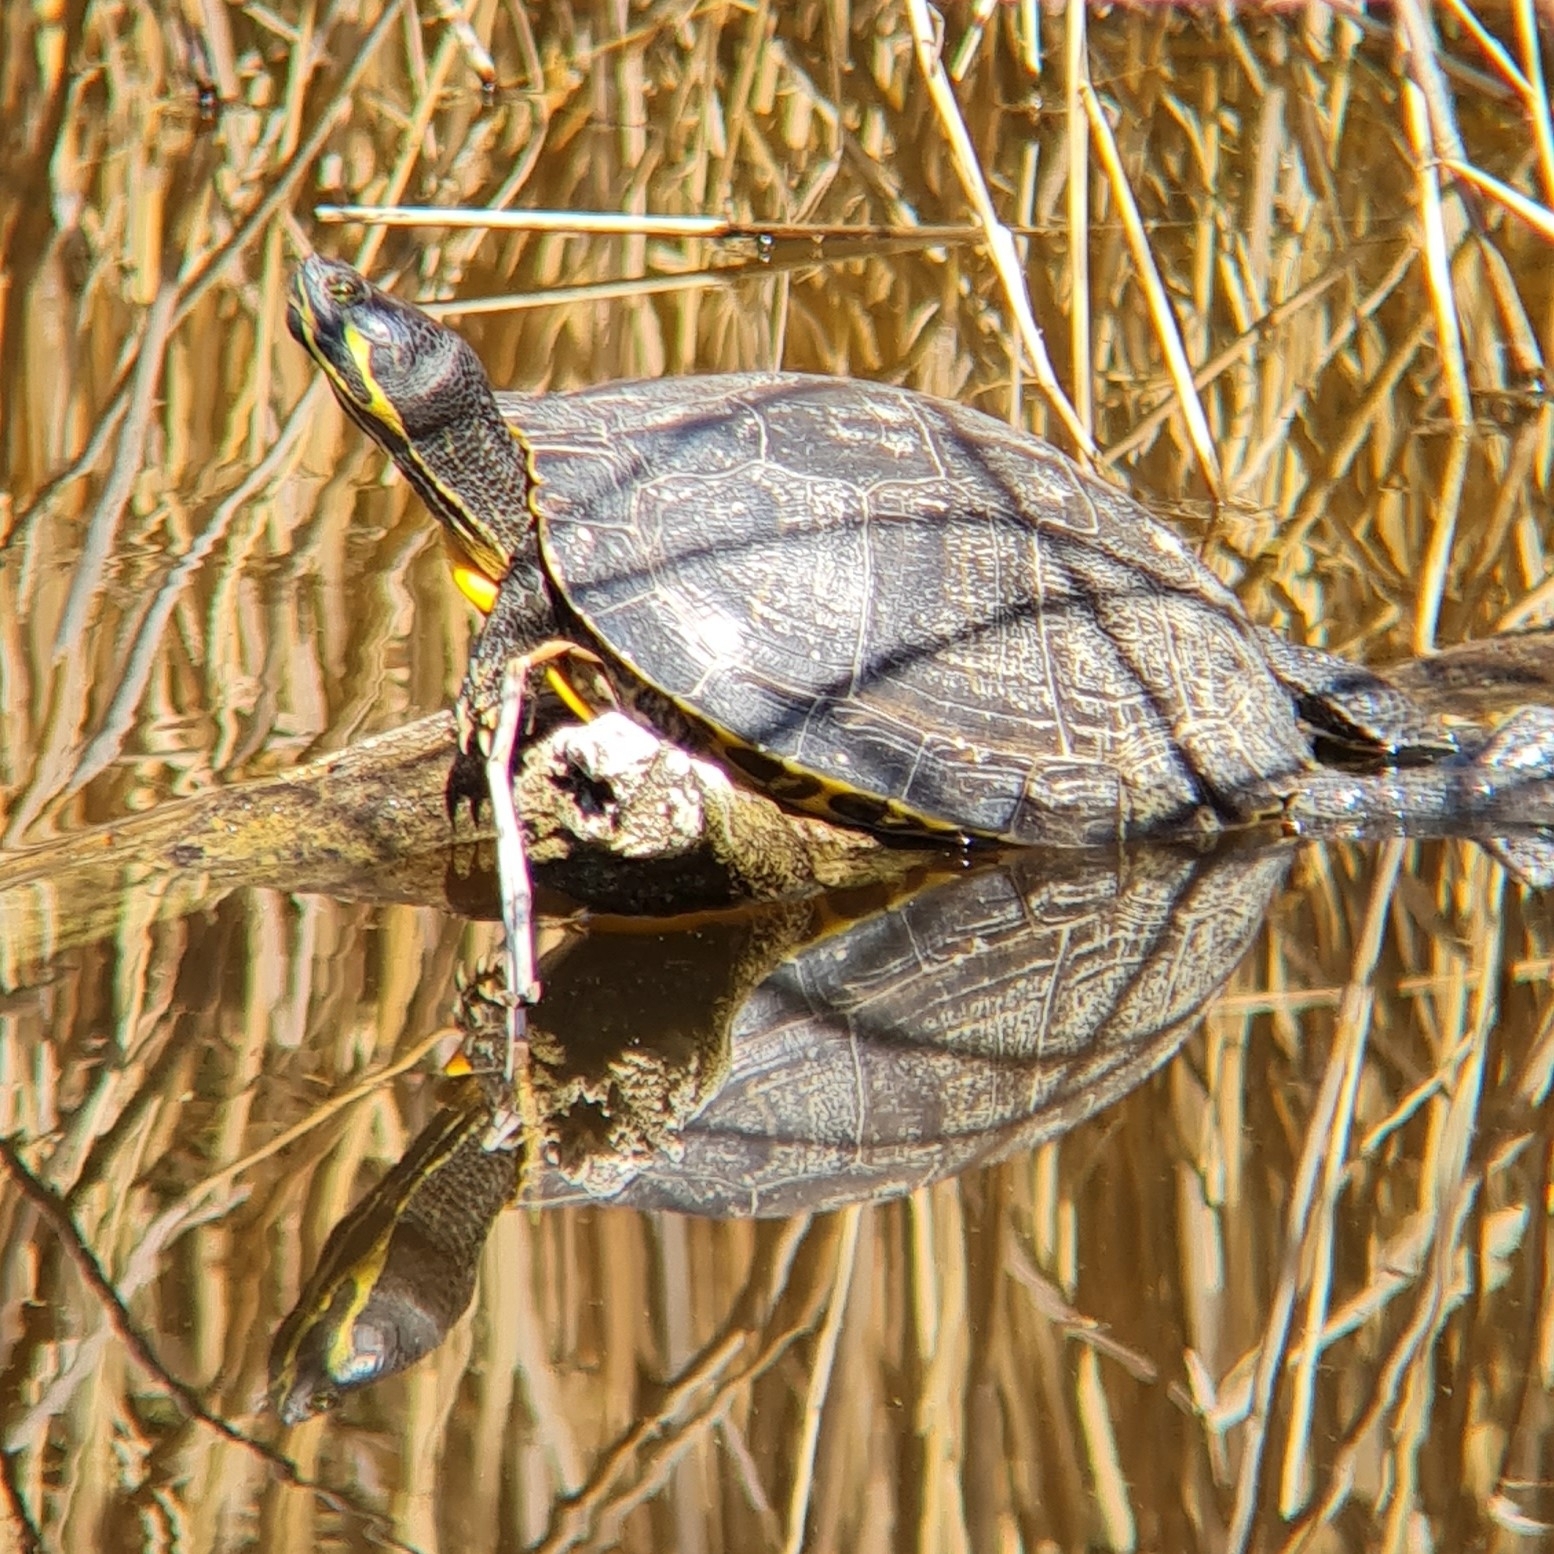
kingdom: Animalia
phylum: Chordata
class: Testudines
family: Emydidae
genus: Trachemys
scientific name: Trachemys scripta
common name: Slider
